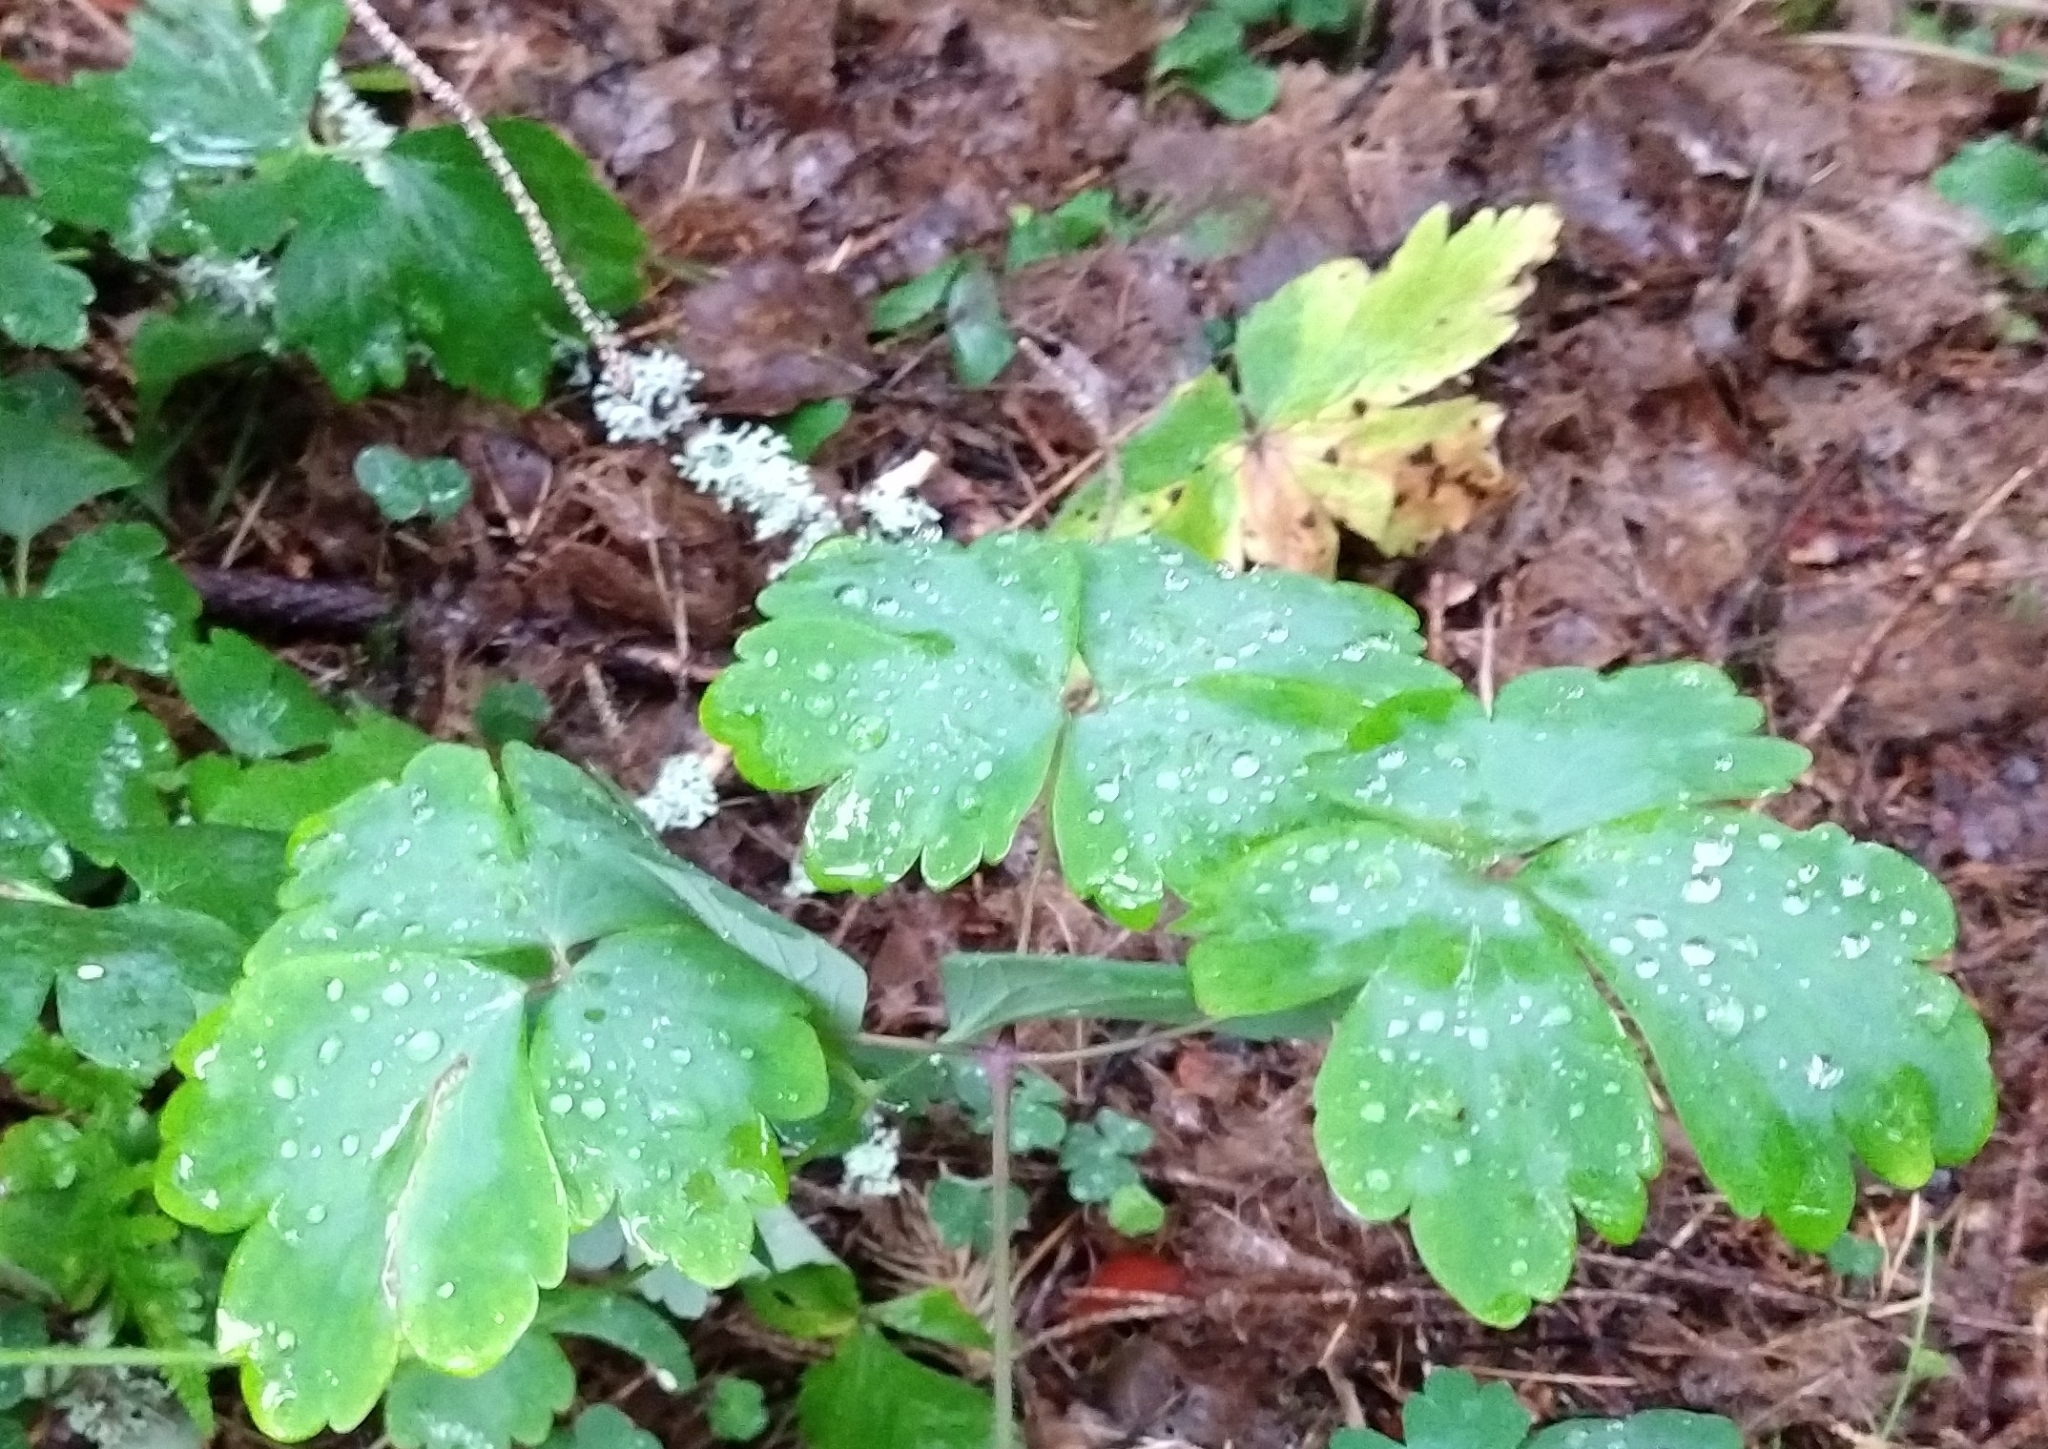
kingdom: Plantae
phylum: Tracheophyta
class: Magnoliopsida
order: Ranunculales
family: Ranunculaceae
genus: Aquilegia
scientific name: Aquilegia vulgaris
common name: Columbine
